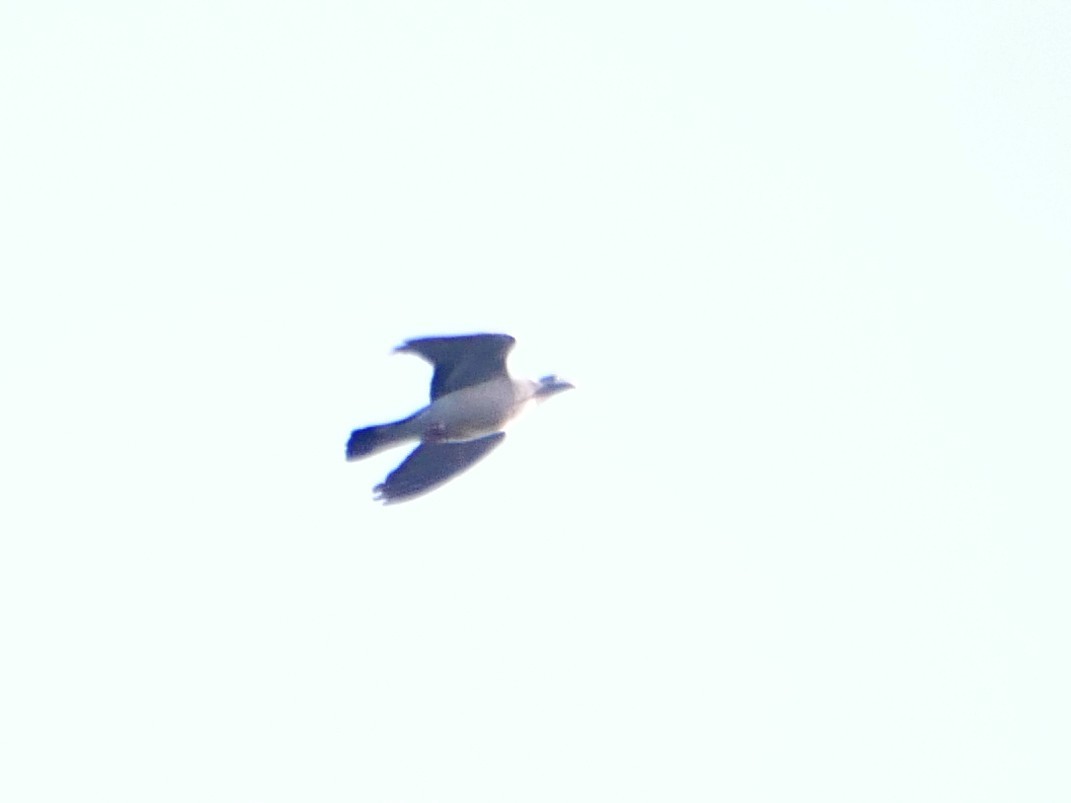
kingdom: Animalia
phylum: Chordata
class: Aves
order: Columbiformes
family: Columbidae
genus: Columba
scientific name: Columba palumbus
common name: Common wood pigeon
